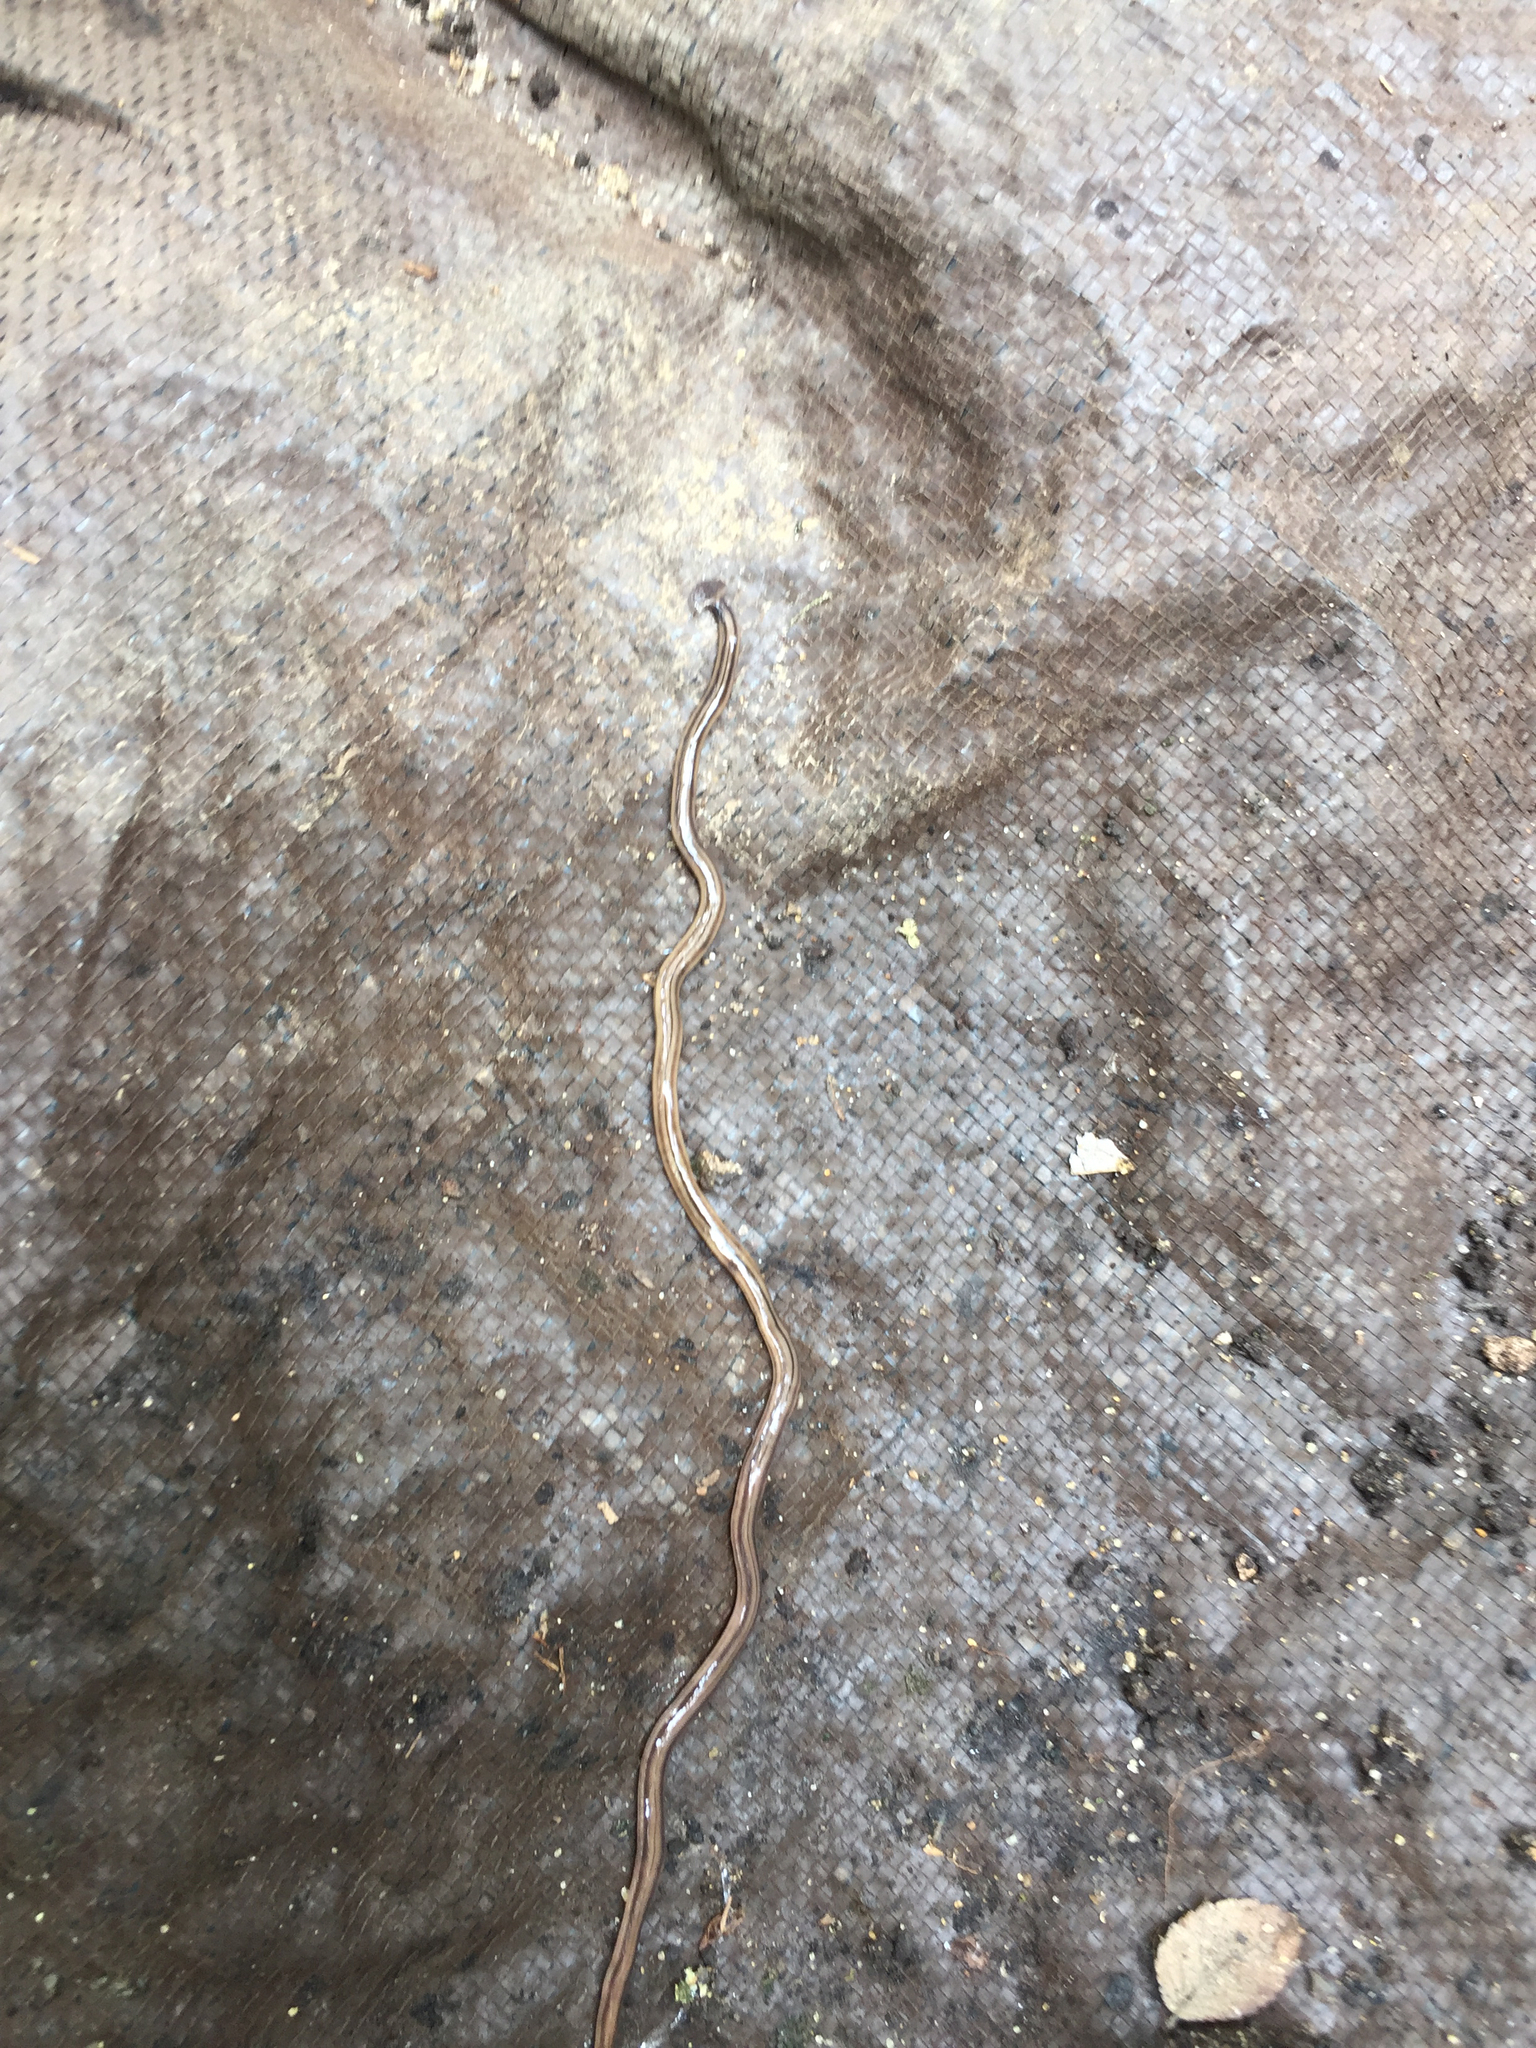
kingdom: Animalia
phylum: Platyhelminthes
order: Tricladida
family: Geoplanidae
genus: Bipalium
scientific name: Bipalium kewense
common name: Hammerhead flatworm
